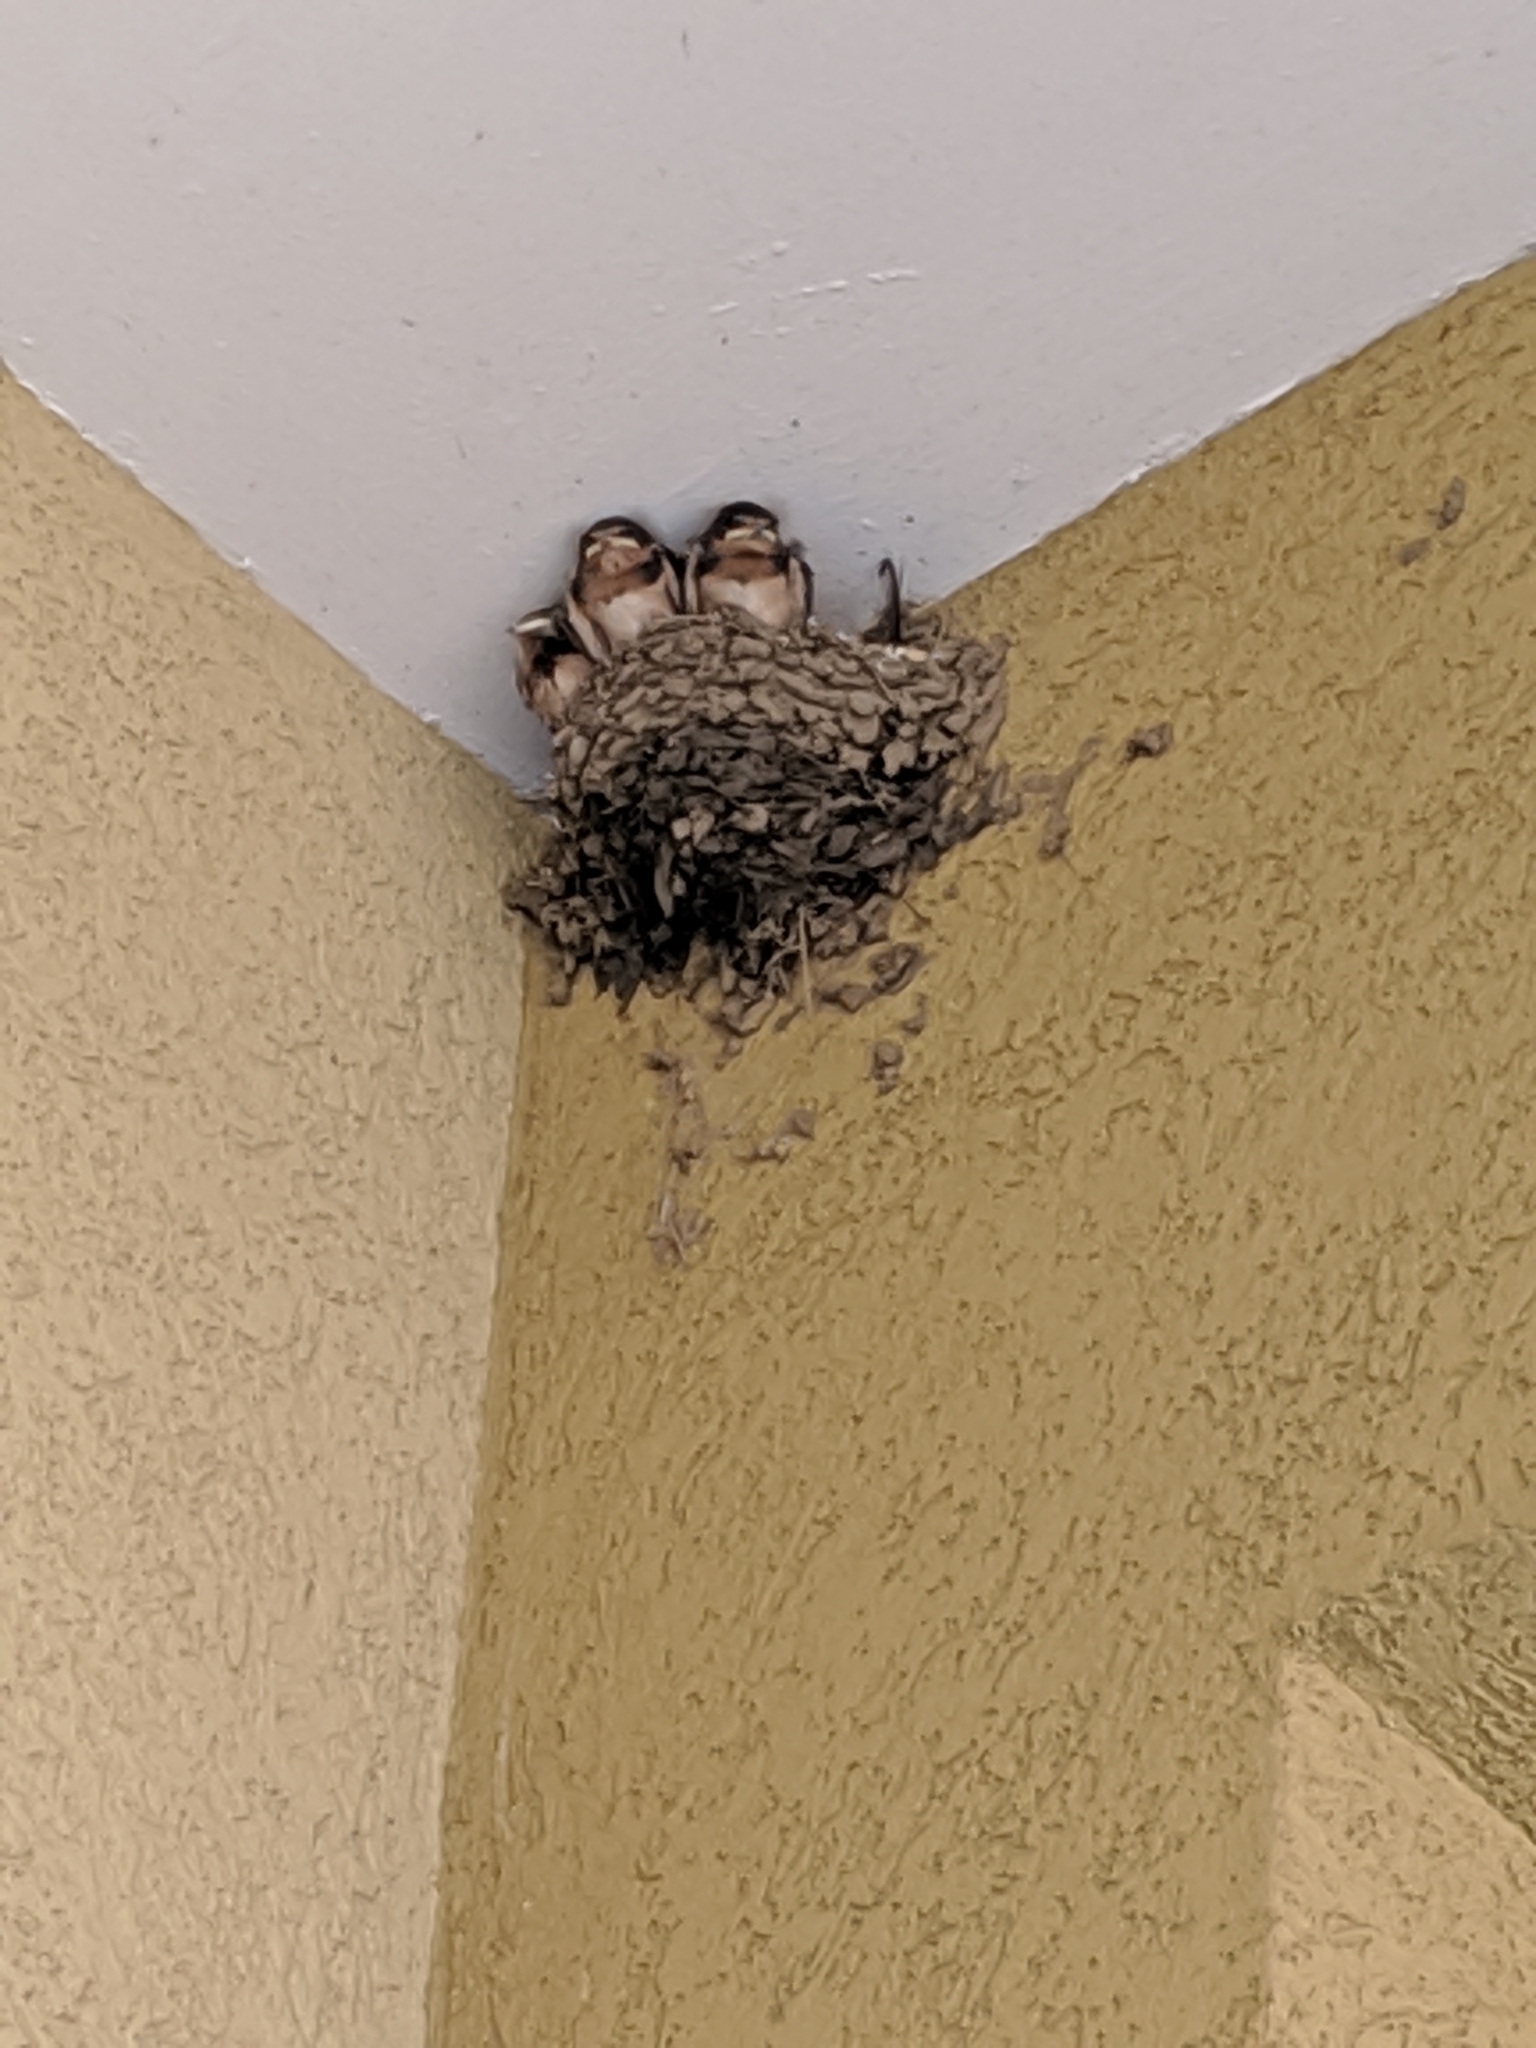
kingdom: Animalia
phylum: Chordata
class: Aves
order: Passeriformes
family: Hirundinidae
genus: Hirundo
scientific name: Hirundo rustica
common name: Barn swallow
